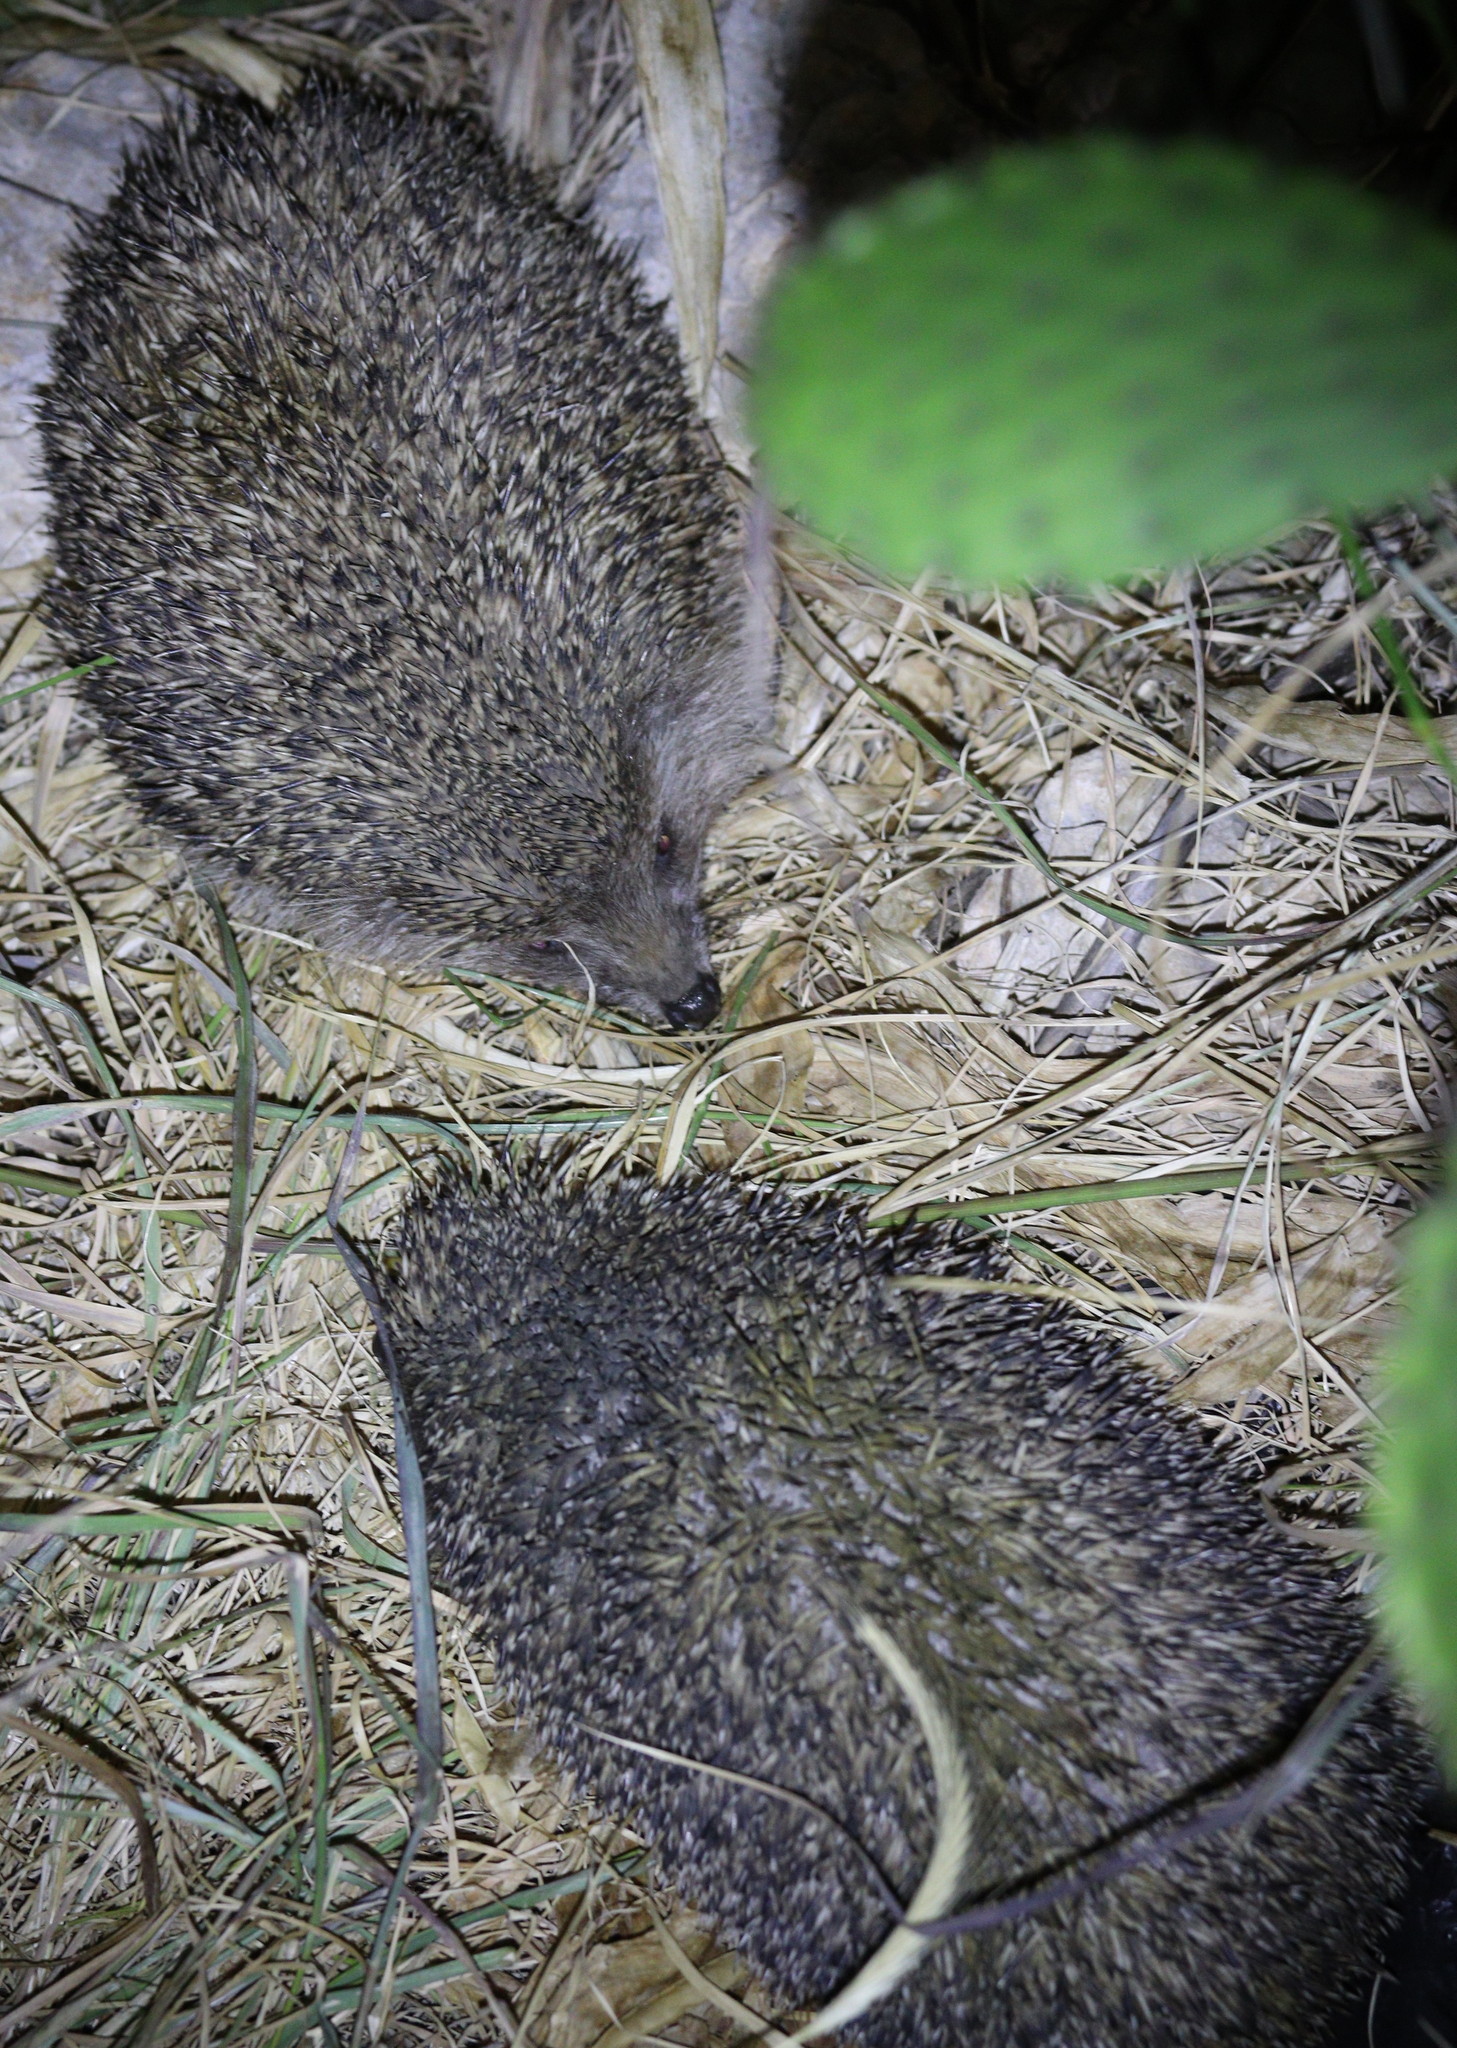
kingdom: Animalia
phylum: Chordata
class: Mammalia
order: Erinaceomorpha
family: Erinaceidae
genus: Erinaceus
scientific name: Erinaceus concolor
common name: Southern white-breasted hedgehog
